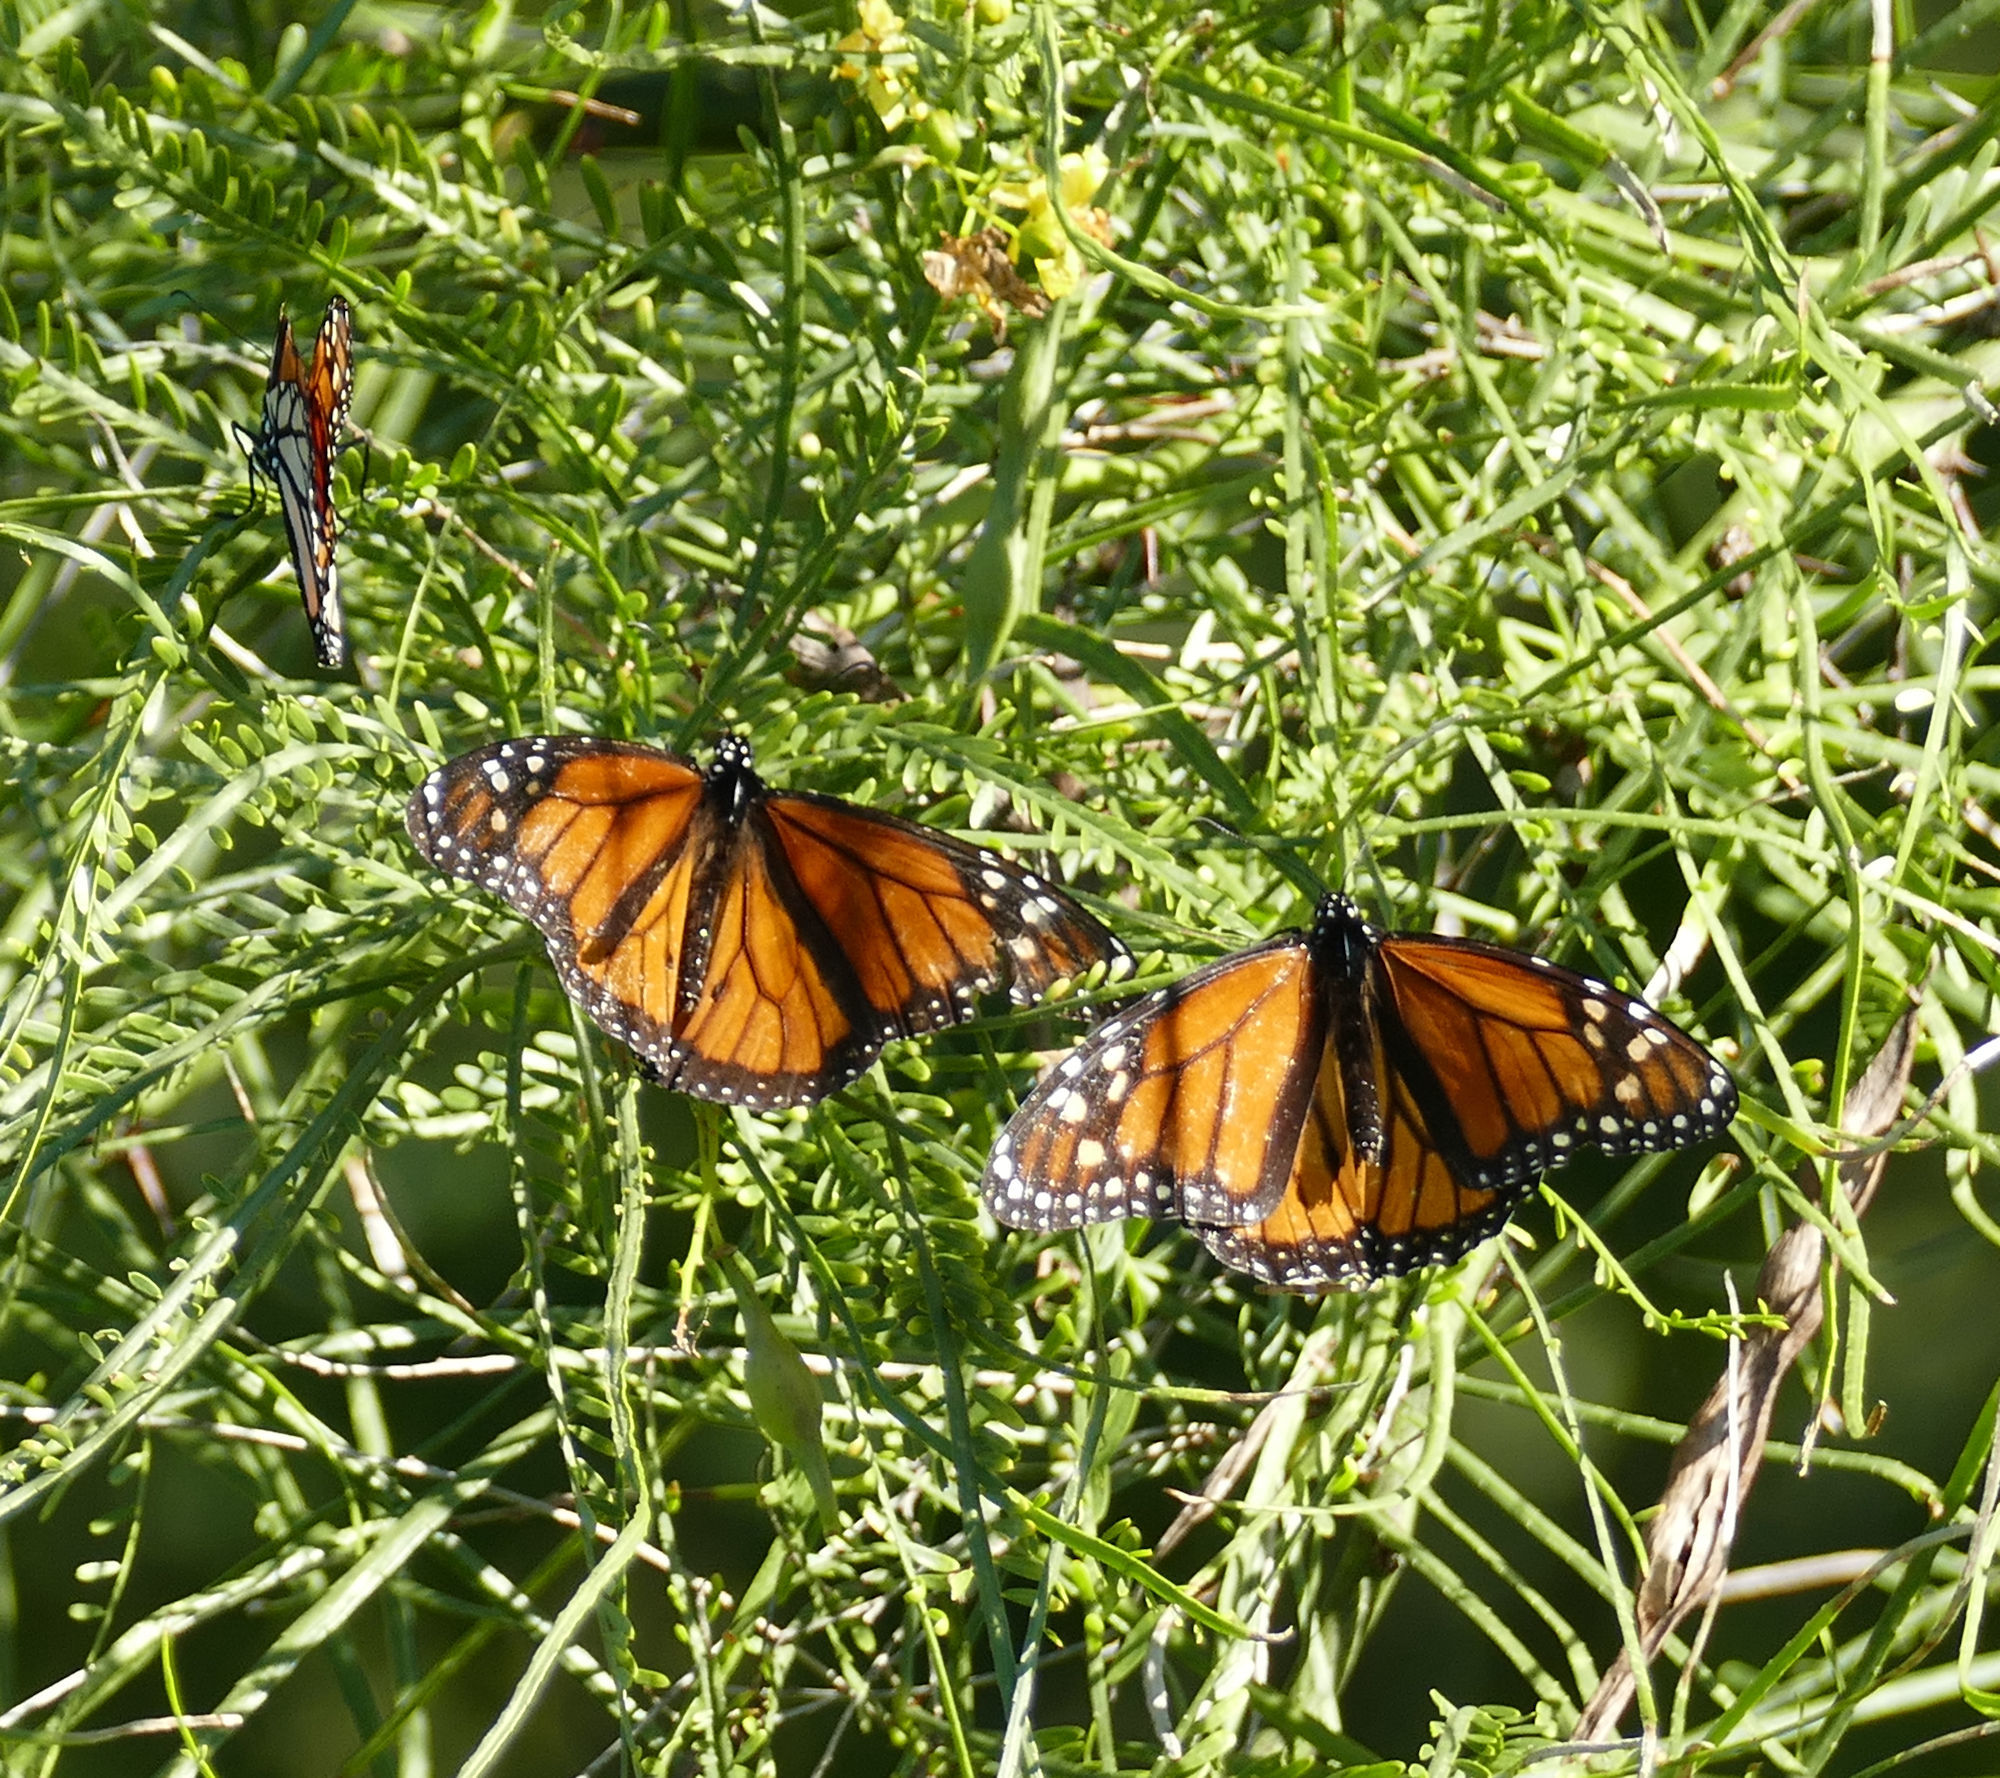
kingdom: Animalia
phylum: Arthropoda
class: Insecta
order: Lepidoptera
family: Nymphalidae
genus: Danaus
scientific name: Danaus plexippus
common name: Monarch
